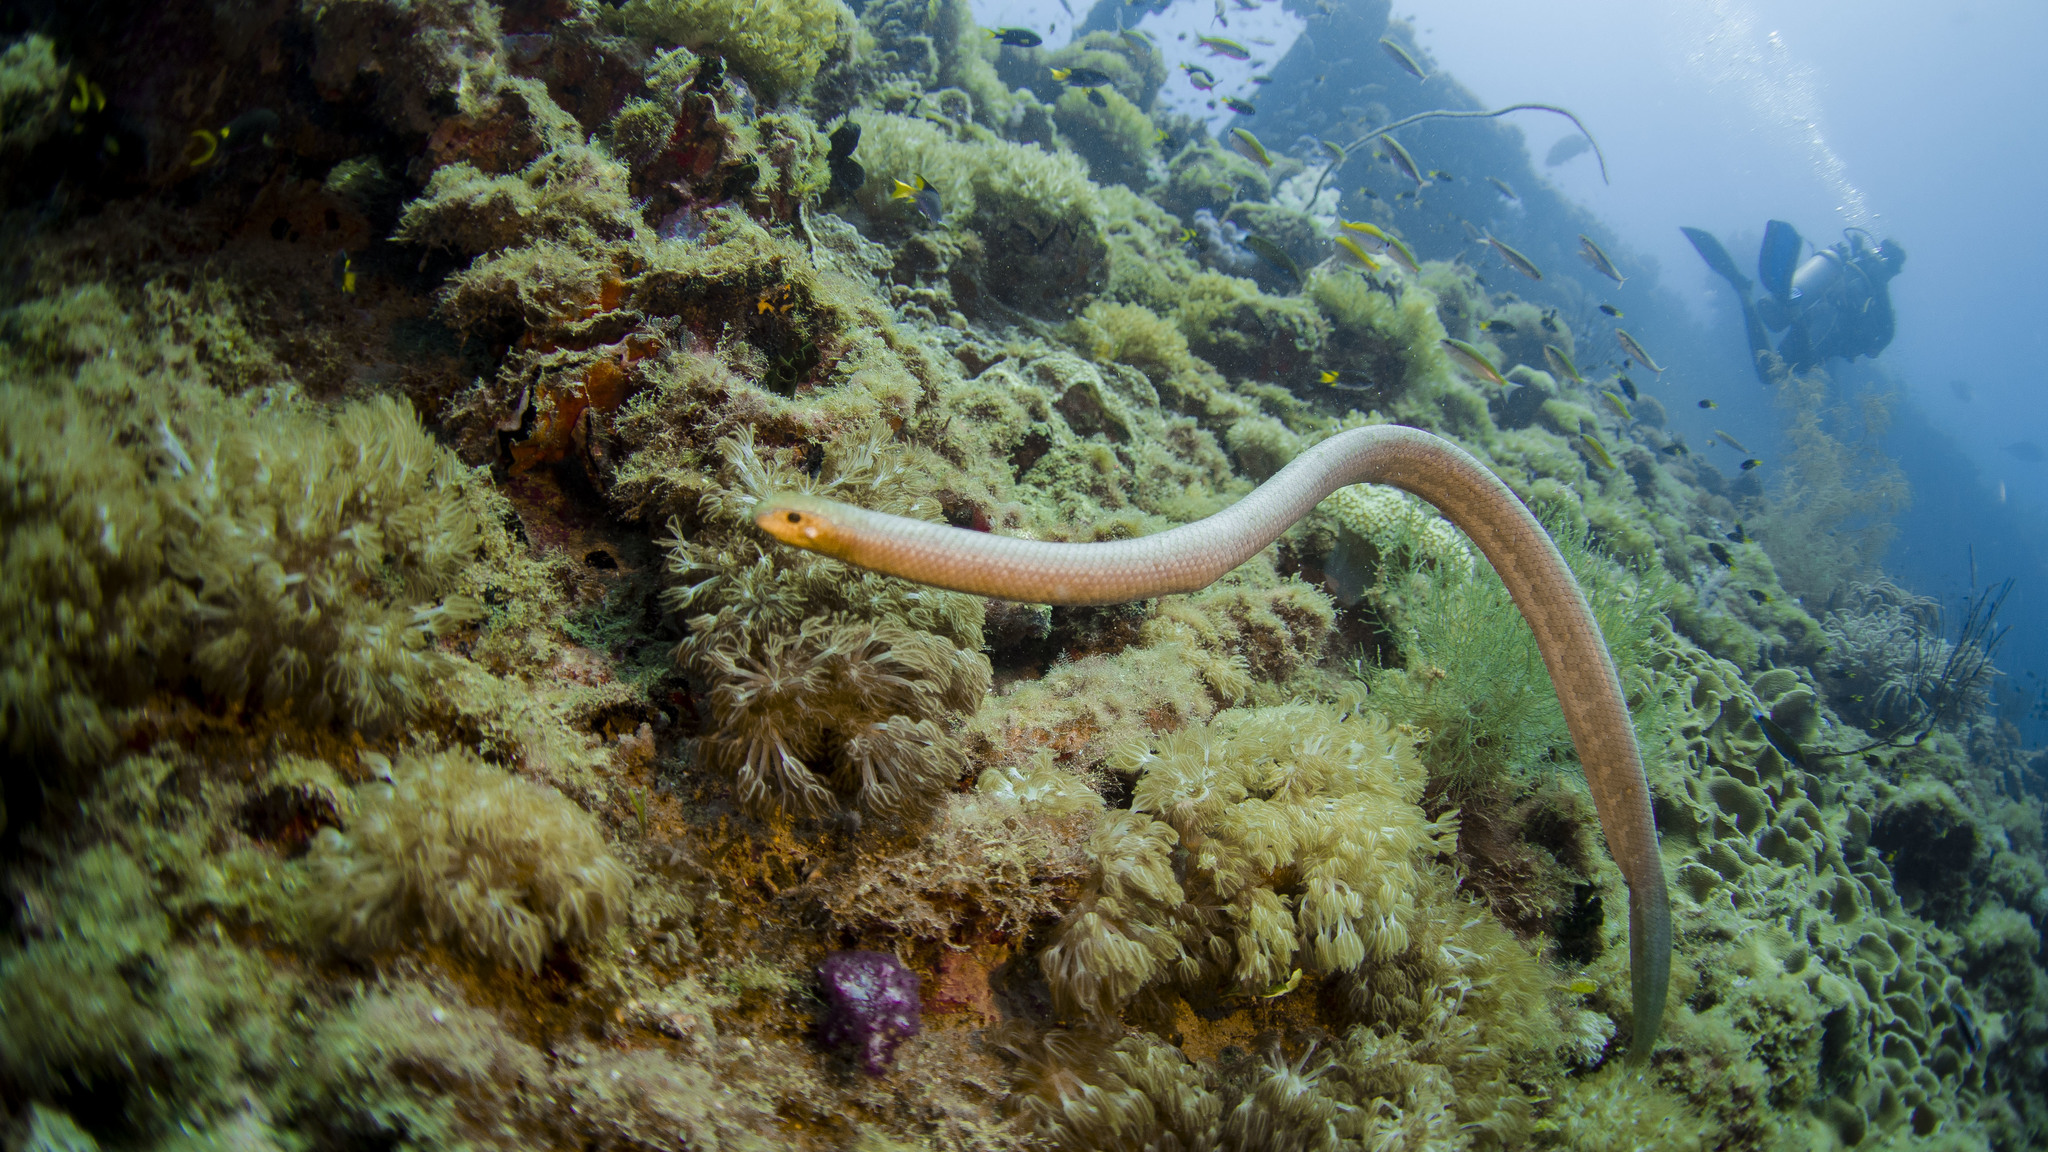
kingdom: Animalia
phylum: Chordata
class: Squamata
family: Elapidae
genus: Aipysurus
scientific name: Aipysurus laevis
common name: Olive sea snake
